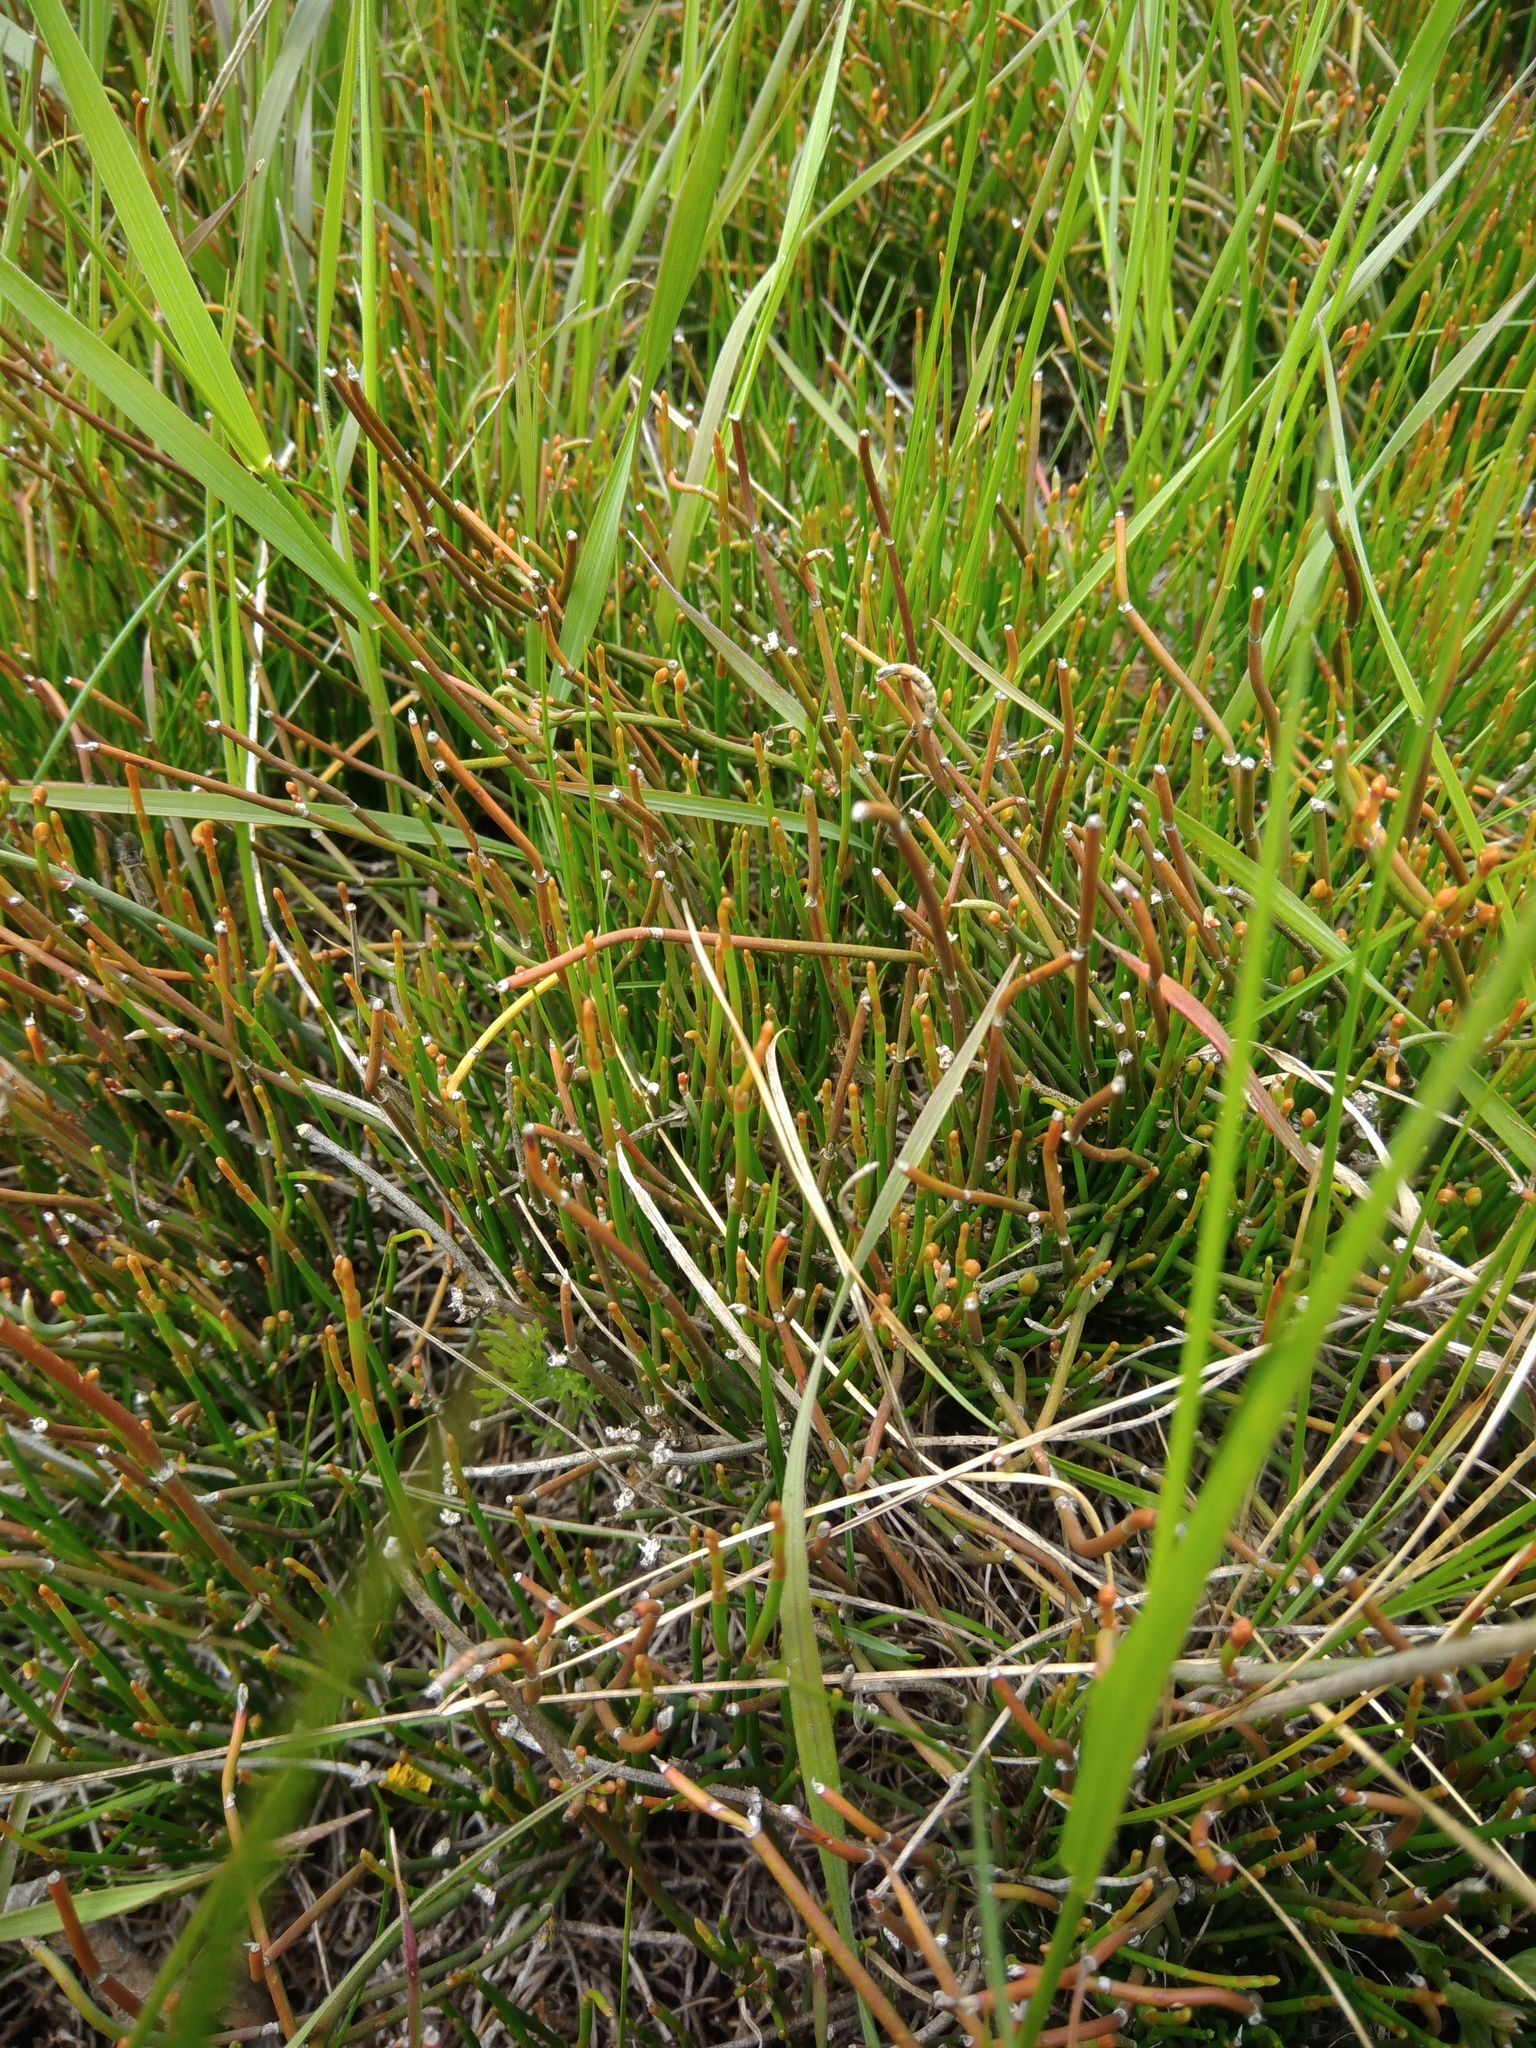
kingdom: Plantae
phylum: Tracheophyta
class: Gnetopsida
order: Ephedrales
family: Ephedraceae
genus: Ephedra
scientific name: Ephedra distachya
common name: Sea grape
